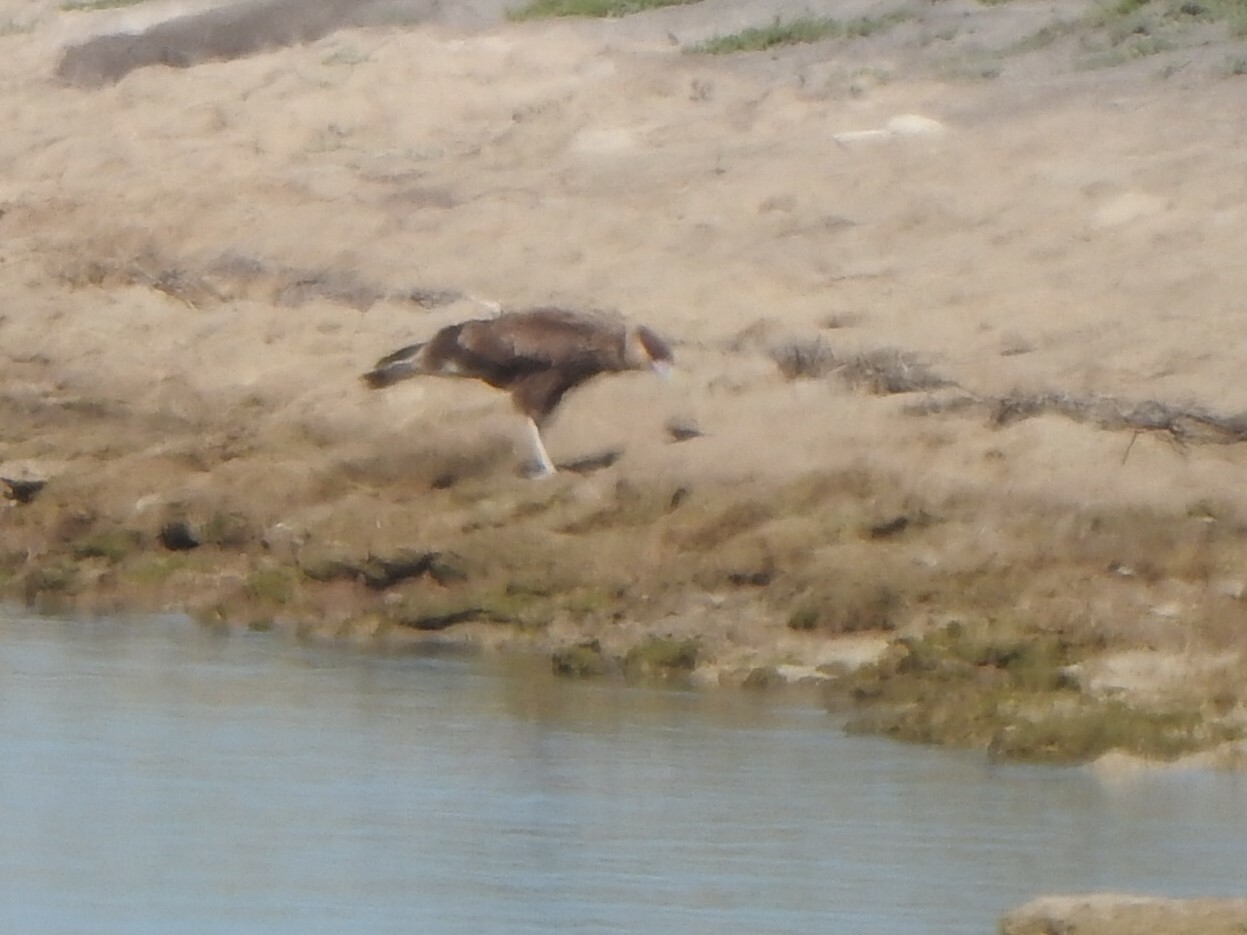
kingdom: Animalia
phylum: Chordata
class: Aves
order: Falconiformes
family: Falconidae
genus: Caracara
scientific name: Caracara plancus
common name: Southern caracara
